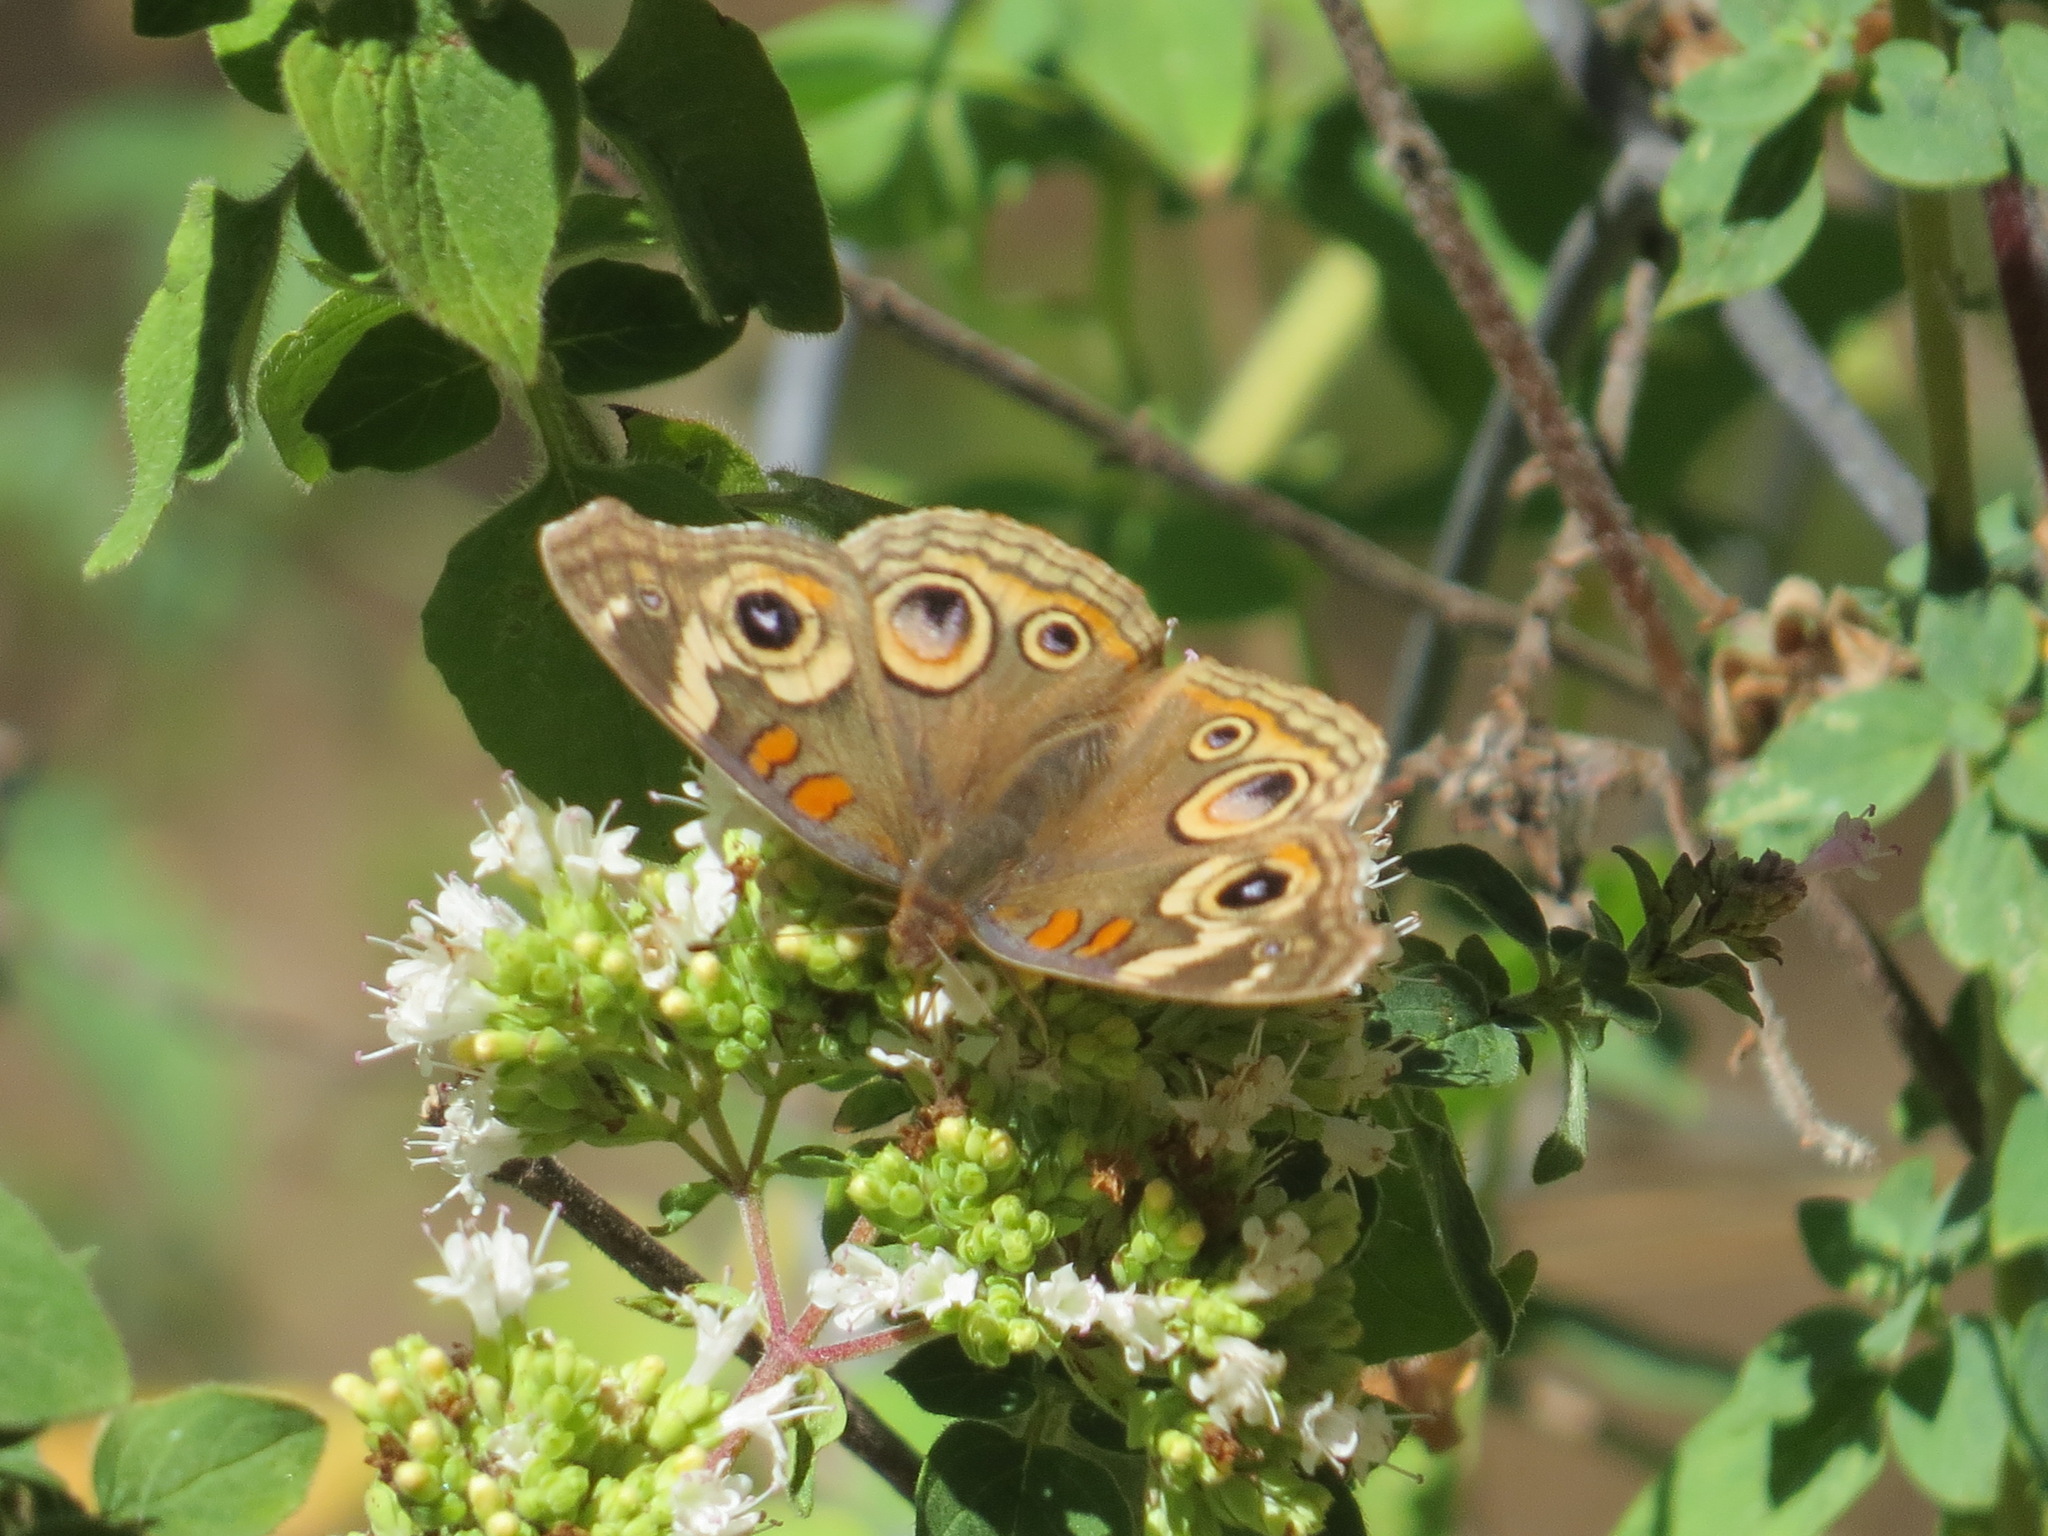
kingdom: Animalia
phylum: Arthropoda
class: Insecta
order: Lepidoptera
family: Nymphalidae
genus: Junonia
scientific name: Junonia grisea
